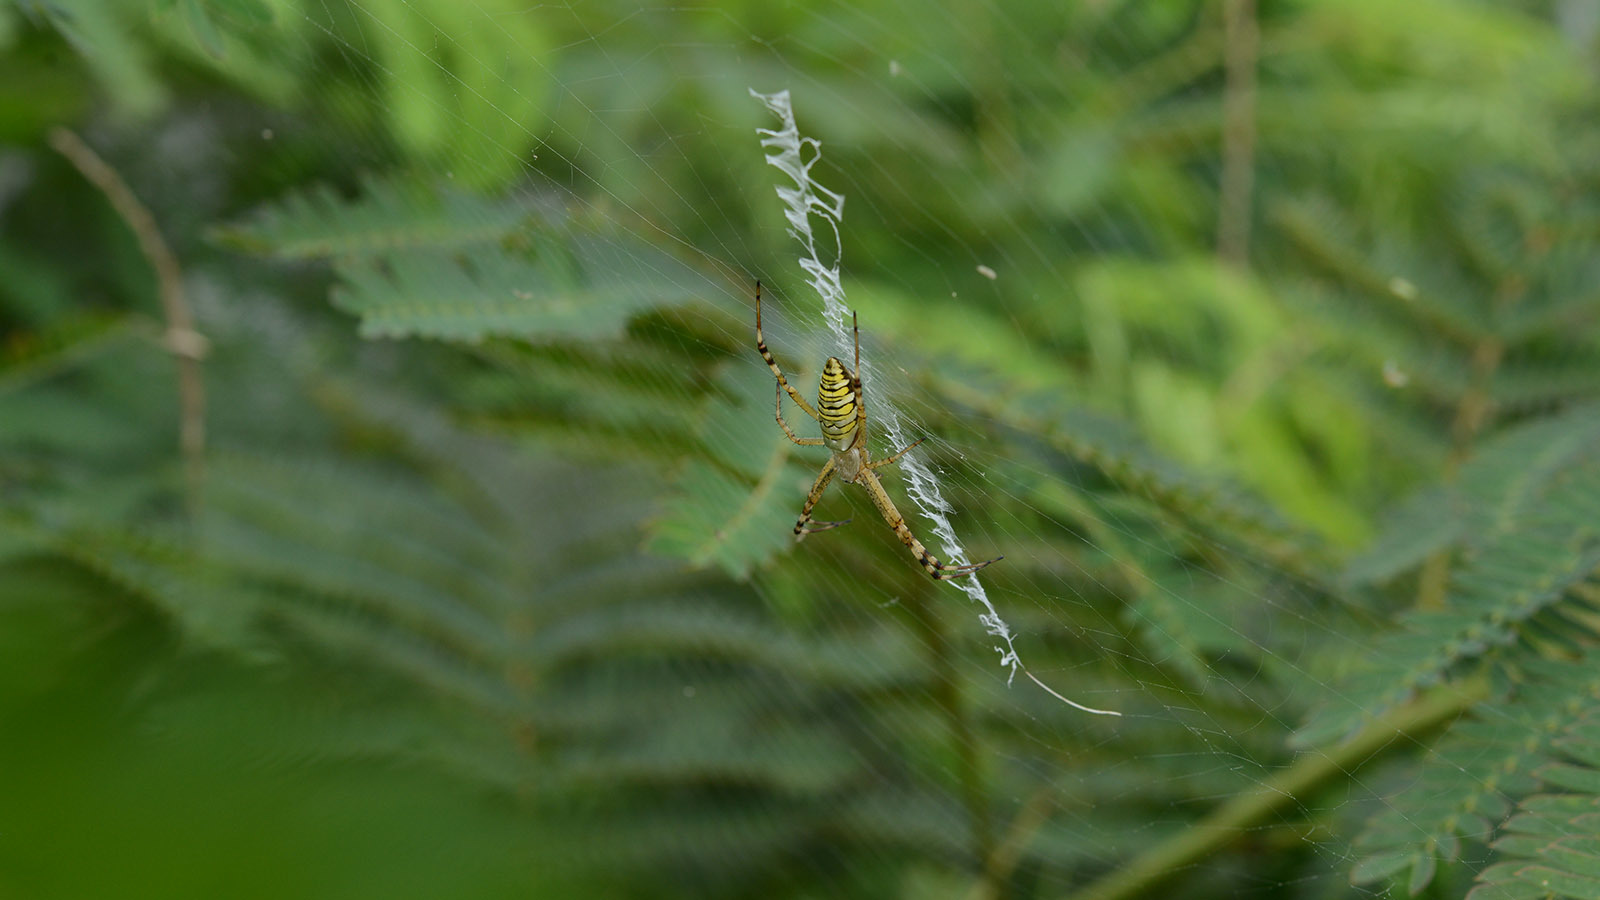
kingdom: Animalia
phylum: Arthropoda
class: Arachnida
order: Araneae
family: Araneidae
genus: Argiope
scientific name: Argiope bruennichi
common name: Wasp spider
